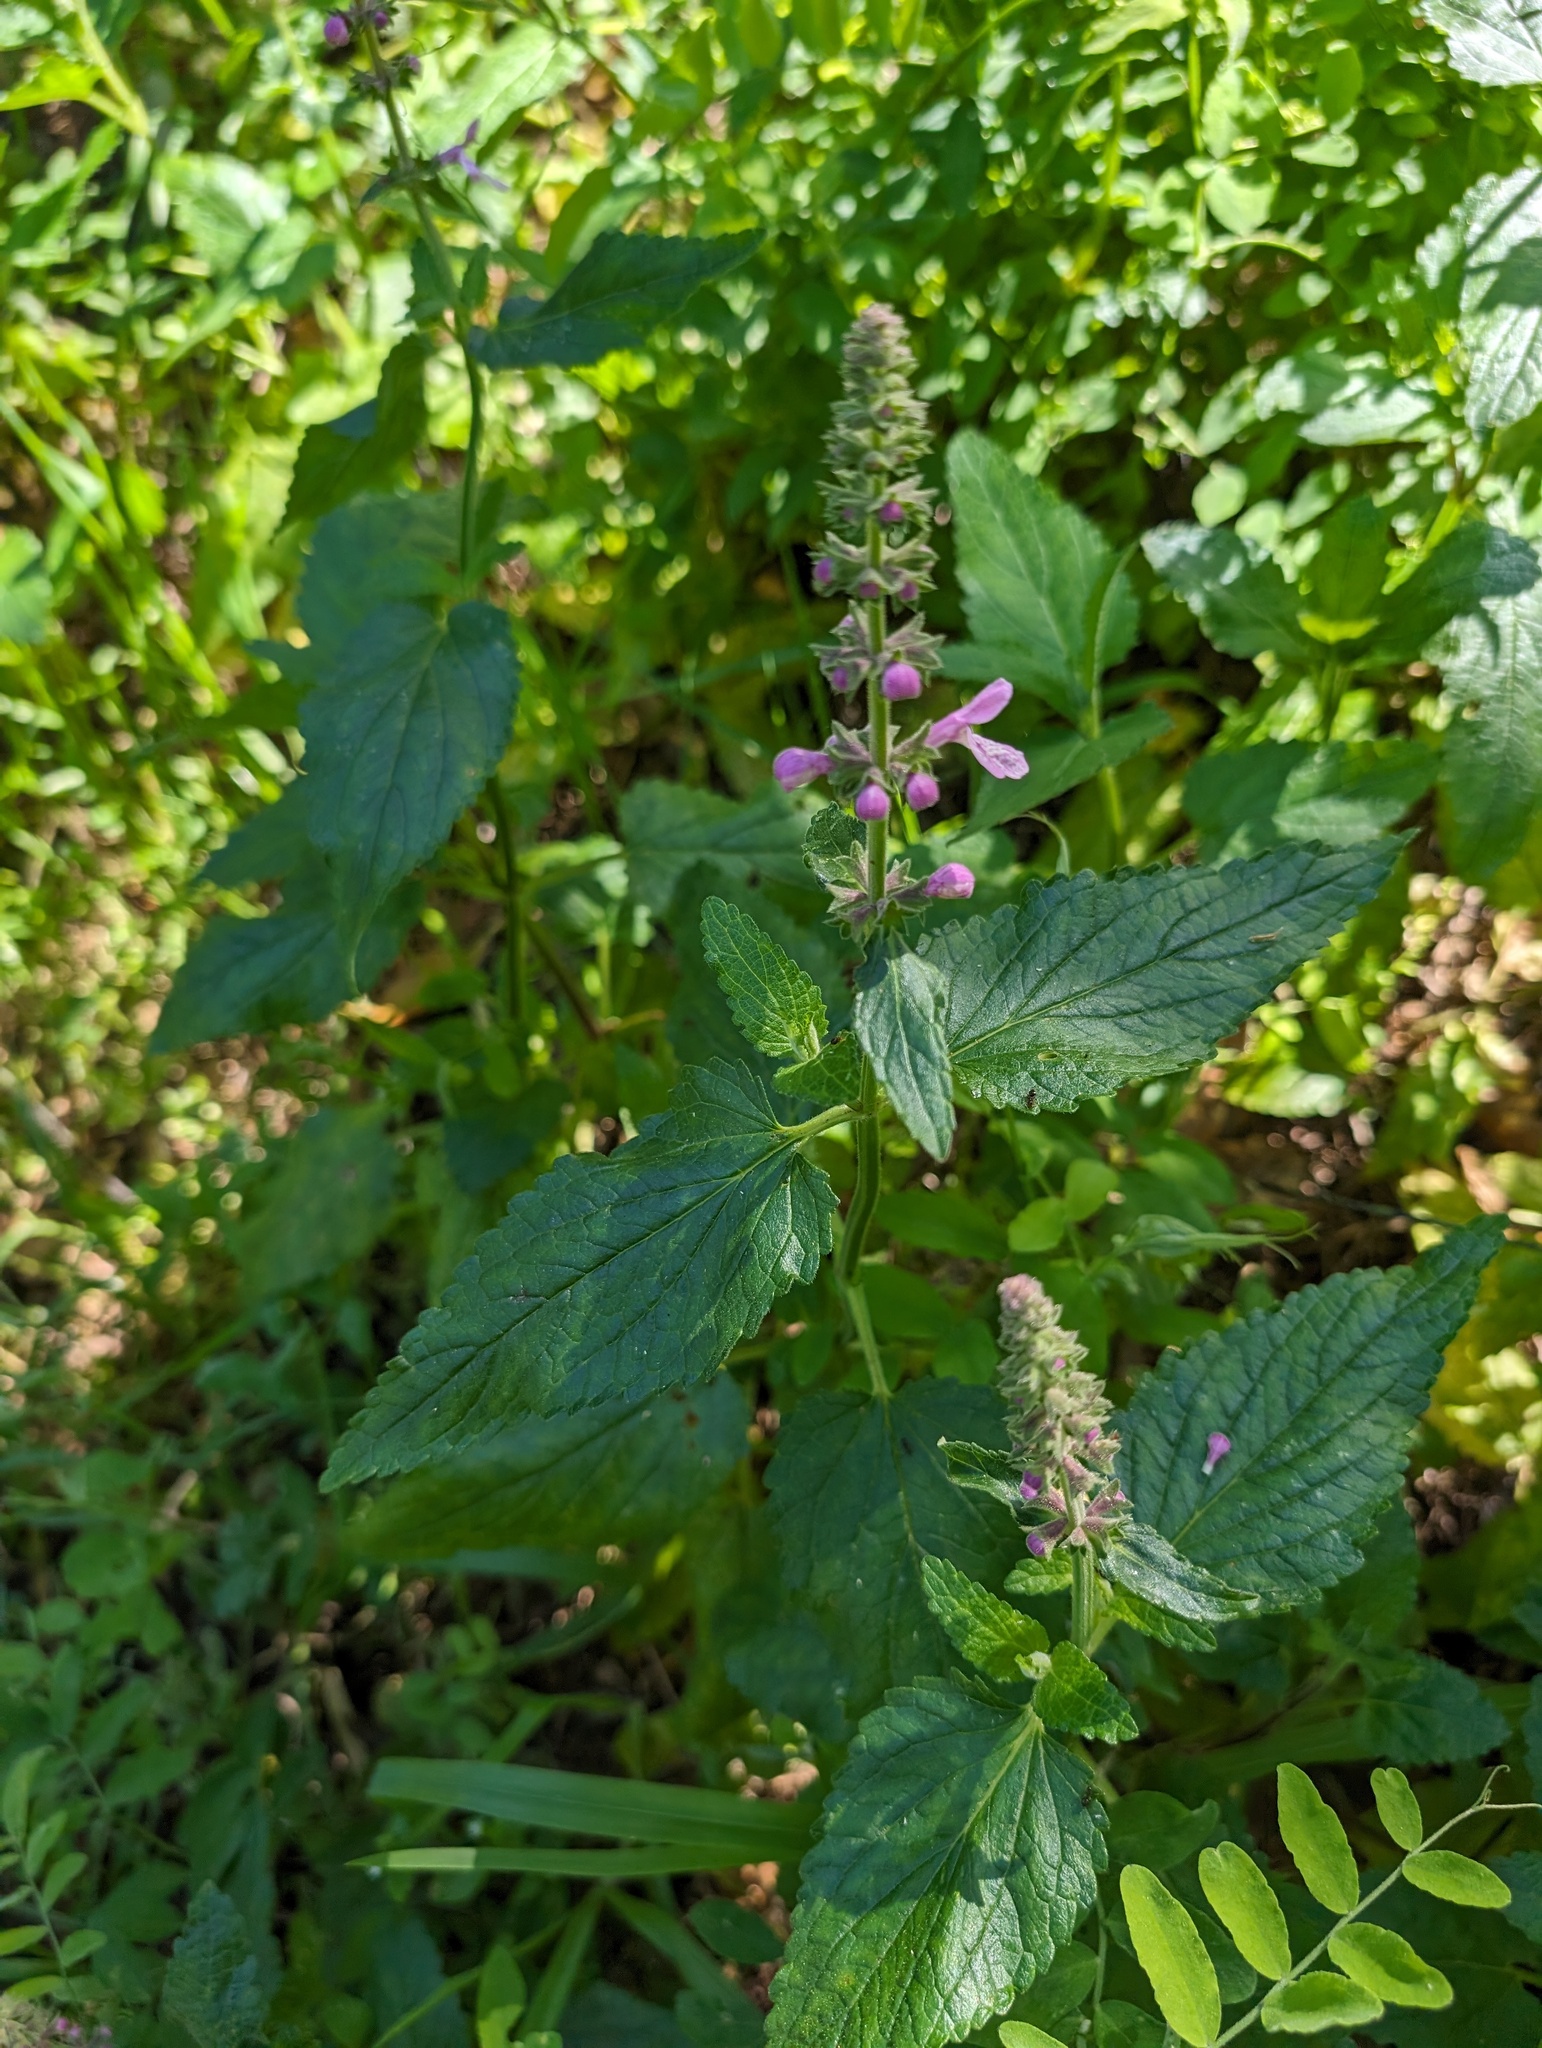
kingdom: Plantae
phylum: Tracheophyta
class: Magnoliopsida
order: Lamiales
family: Lamiaceae
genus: Stachys
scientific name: Stachys bullata
